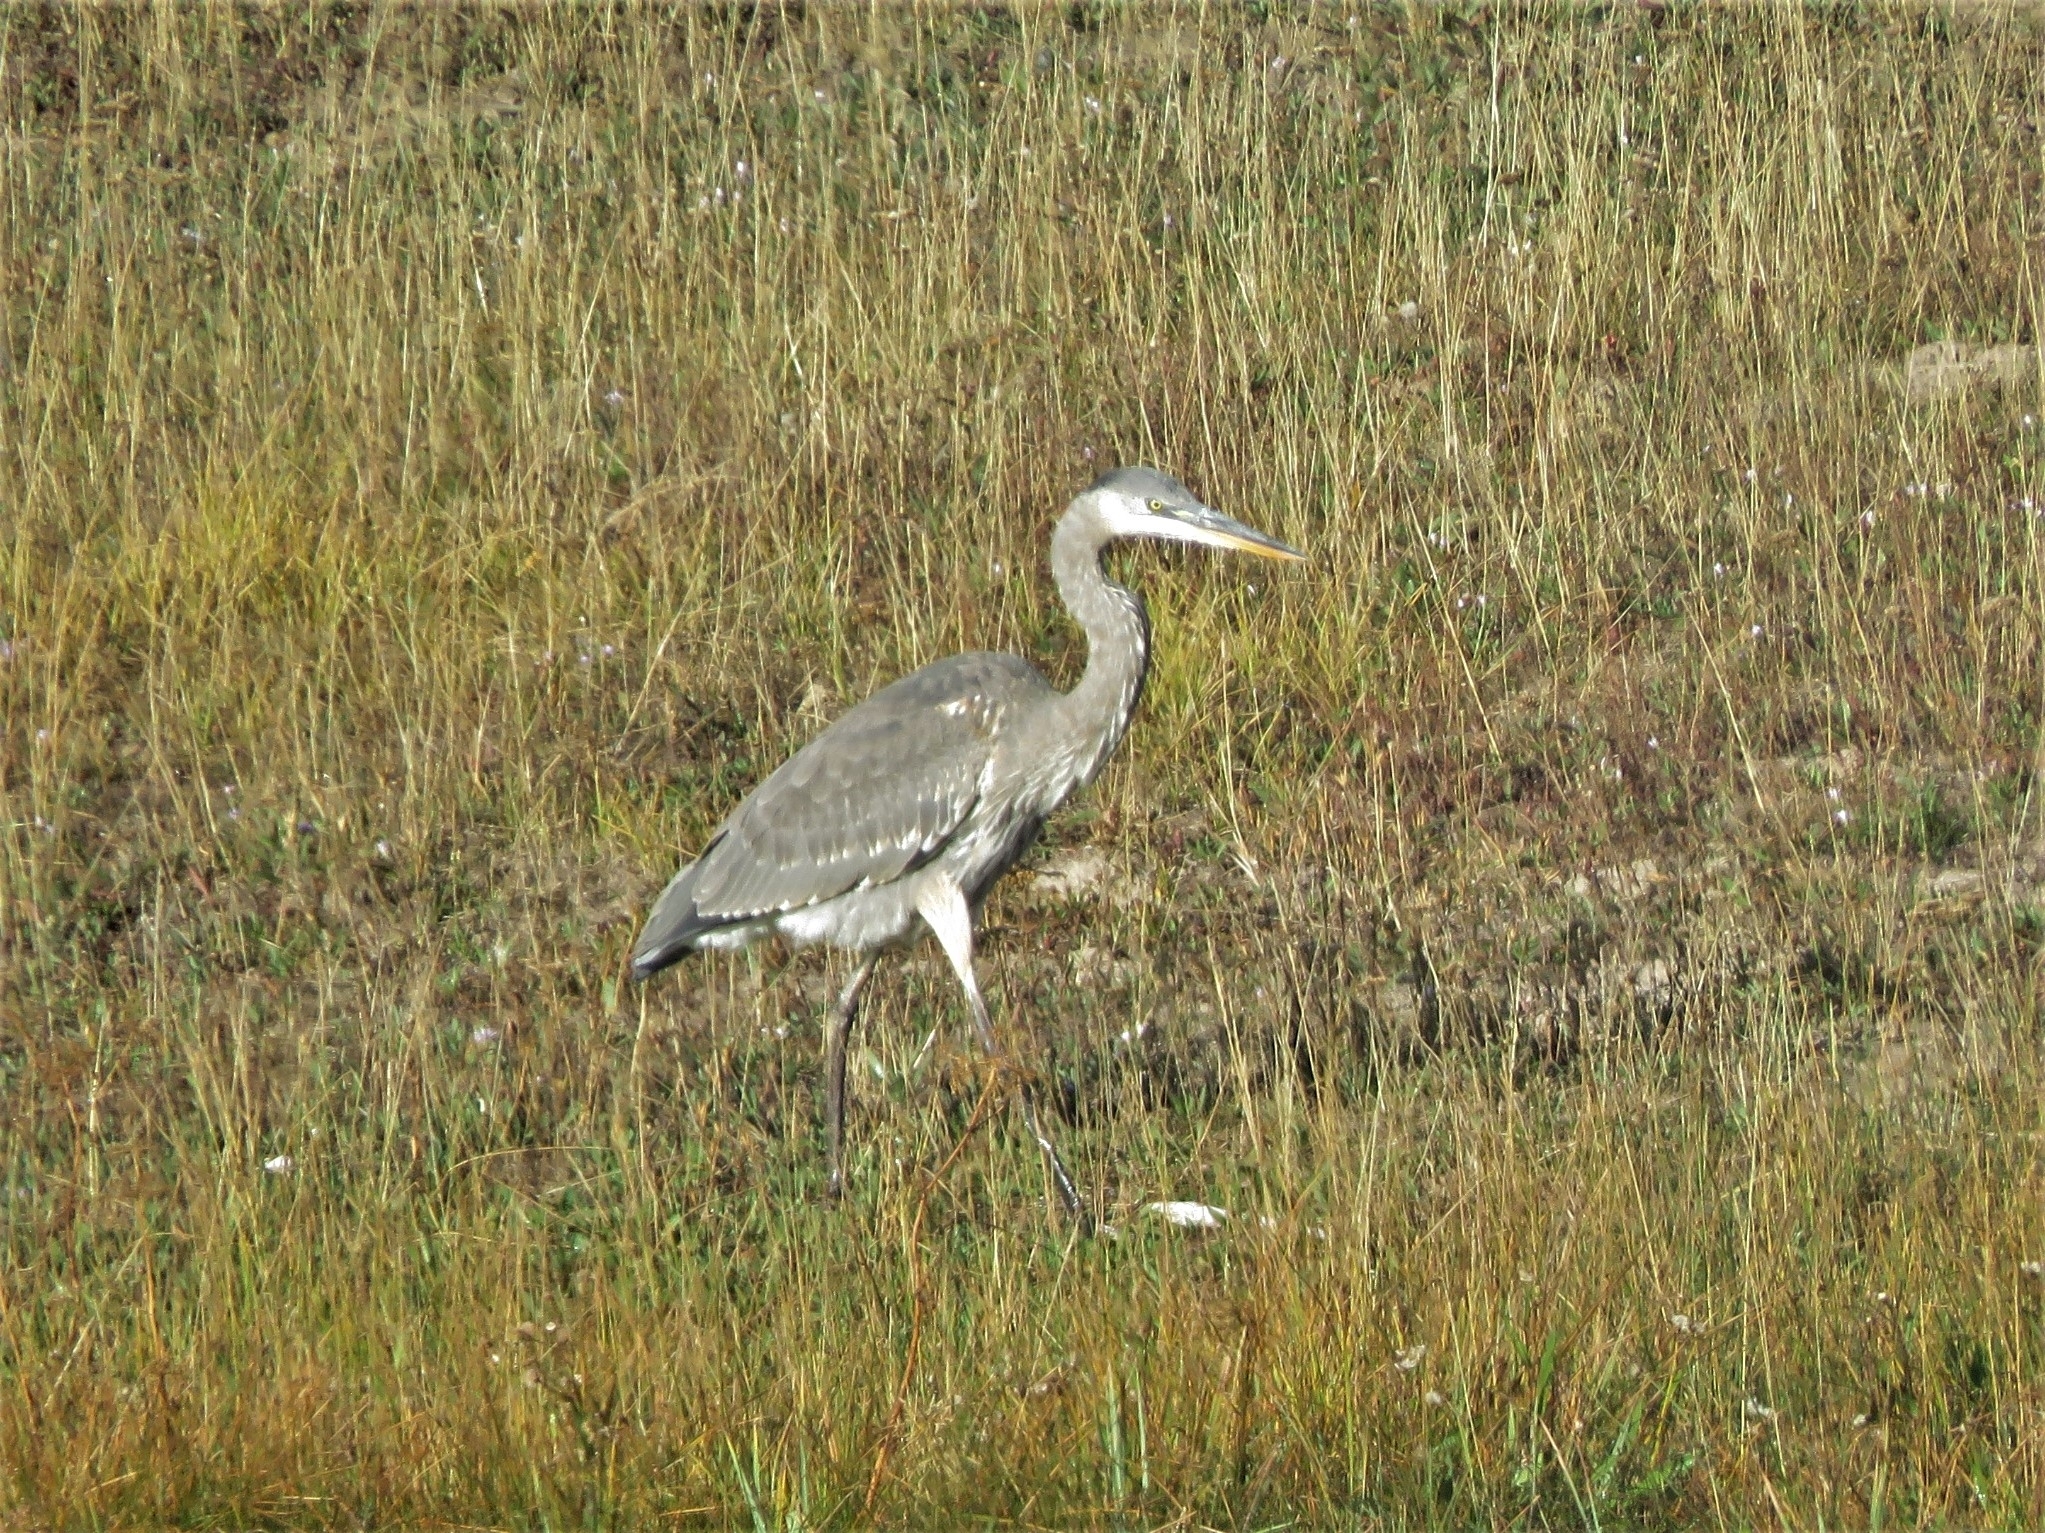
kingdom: Animalia
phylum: Chordata
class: Aves
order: Pelecaniformes
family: Ardeidae
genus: Ardea
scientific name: Ardea herodias
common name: Great blue heron
